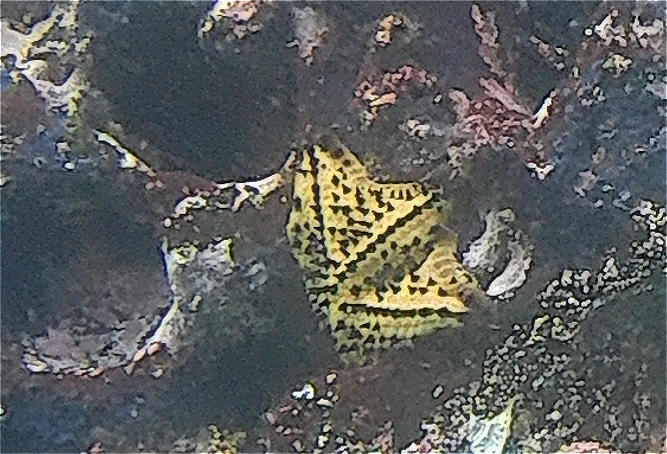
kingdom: Animalia
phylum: Echinodermata
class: Asteroidea
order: Valvatida
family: Oreasteridae
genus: Nidorellia
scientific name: Nidorellia armata
